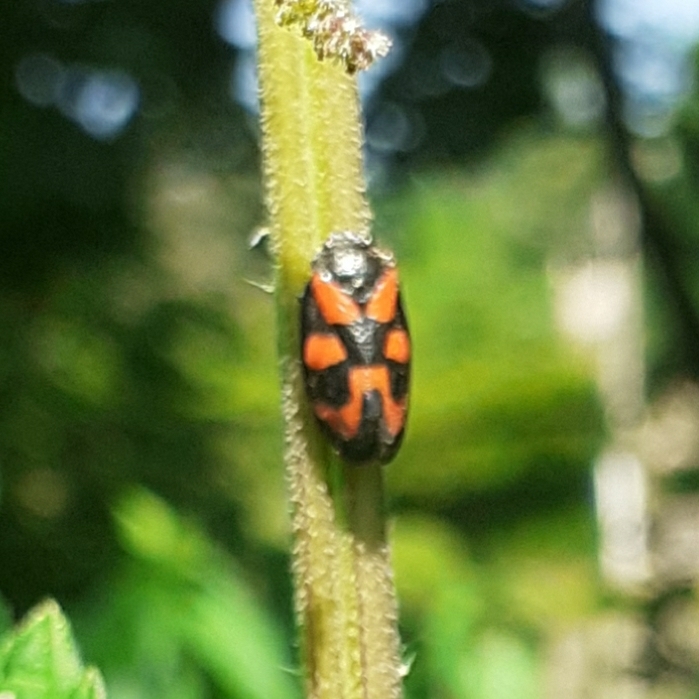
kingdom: Animalia
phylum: Arthropoda
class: Insecta
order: Hemiptera
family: Cercopidae
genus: Cercopis
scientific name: Cercopis vulnerata
